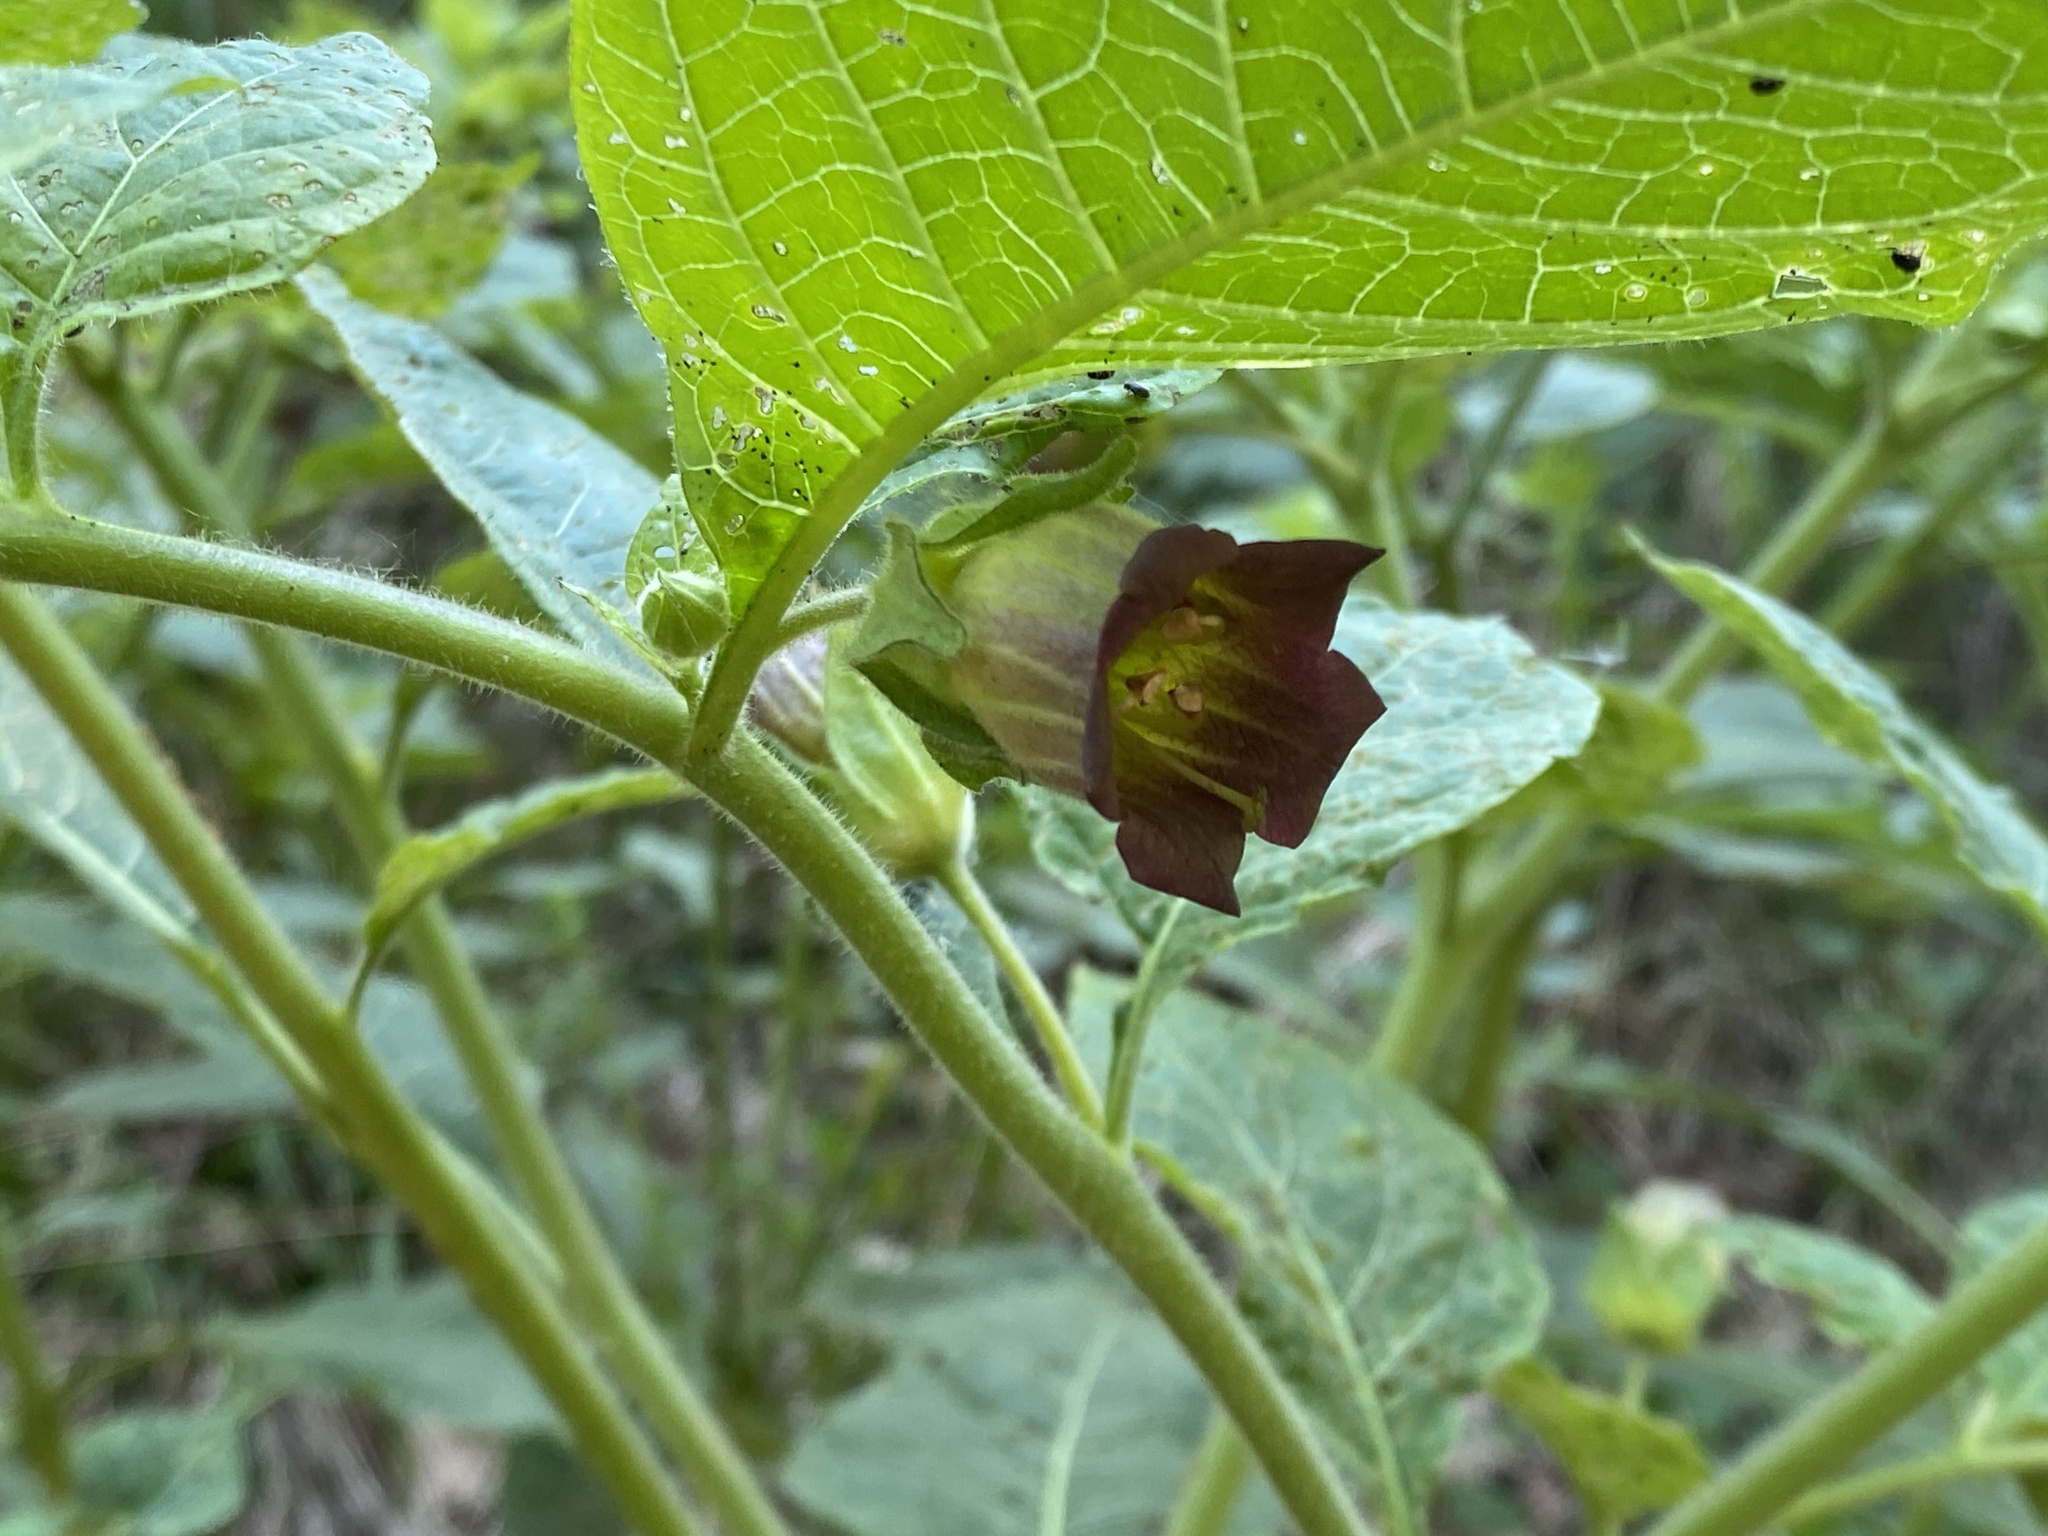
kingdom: Plantae
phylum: Tracheophyta
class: Magnoliopsida
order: Solanales
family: Solanaceae
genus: Atropa
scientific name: Atropa belladonna
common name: Deadly nightshade
